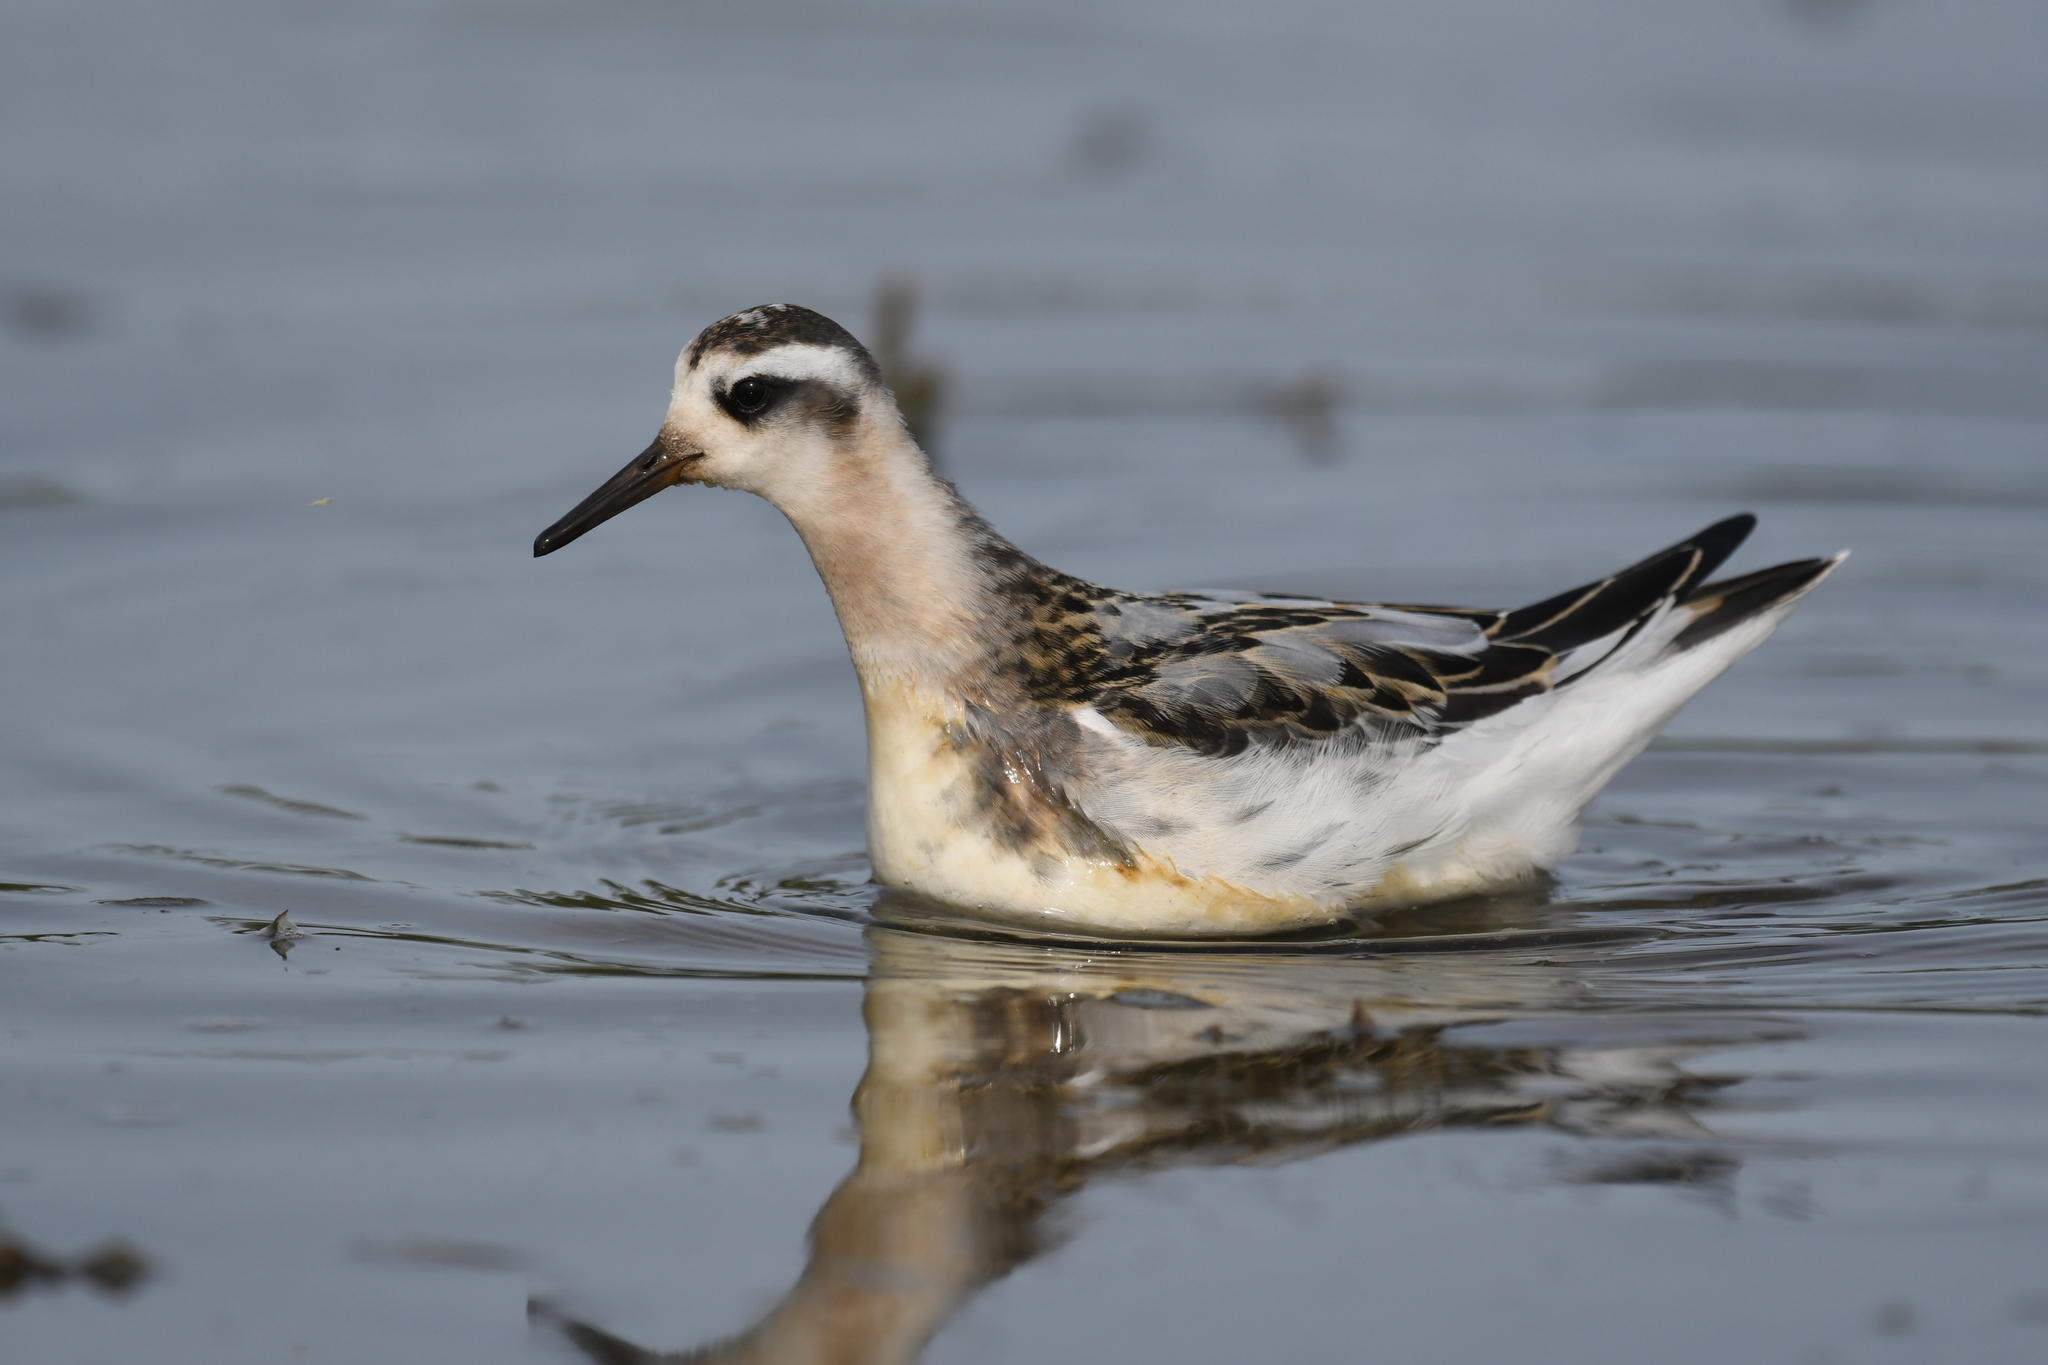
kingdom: Animalia
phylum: Chordata
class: Aves
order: Charadriiformes
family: Scolopacidae
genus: Phalaropus
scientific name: Phalaropus fulicarius
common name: Red phalarope
